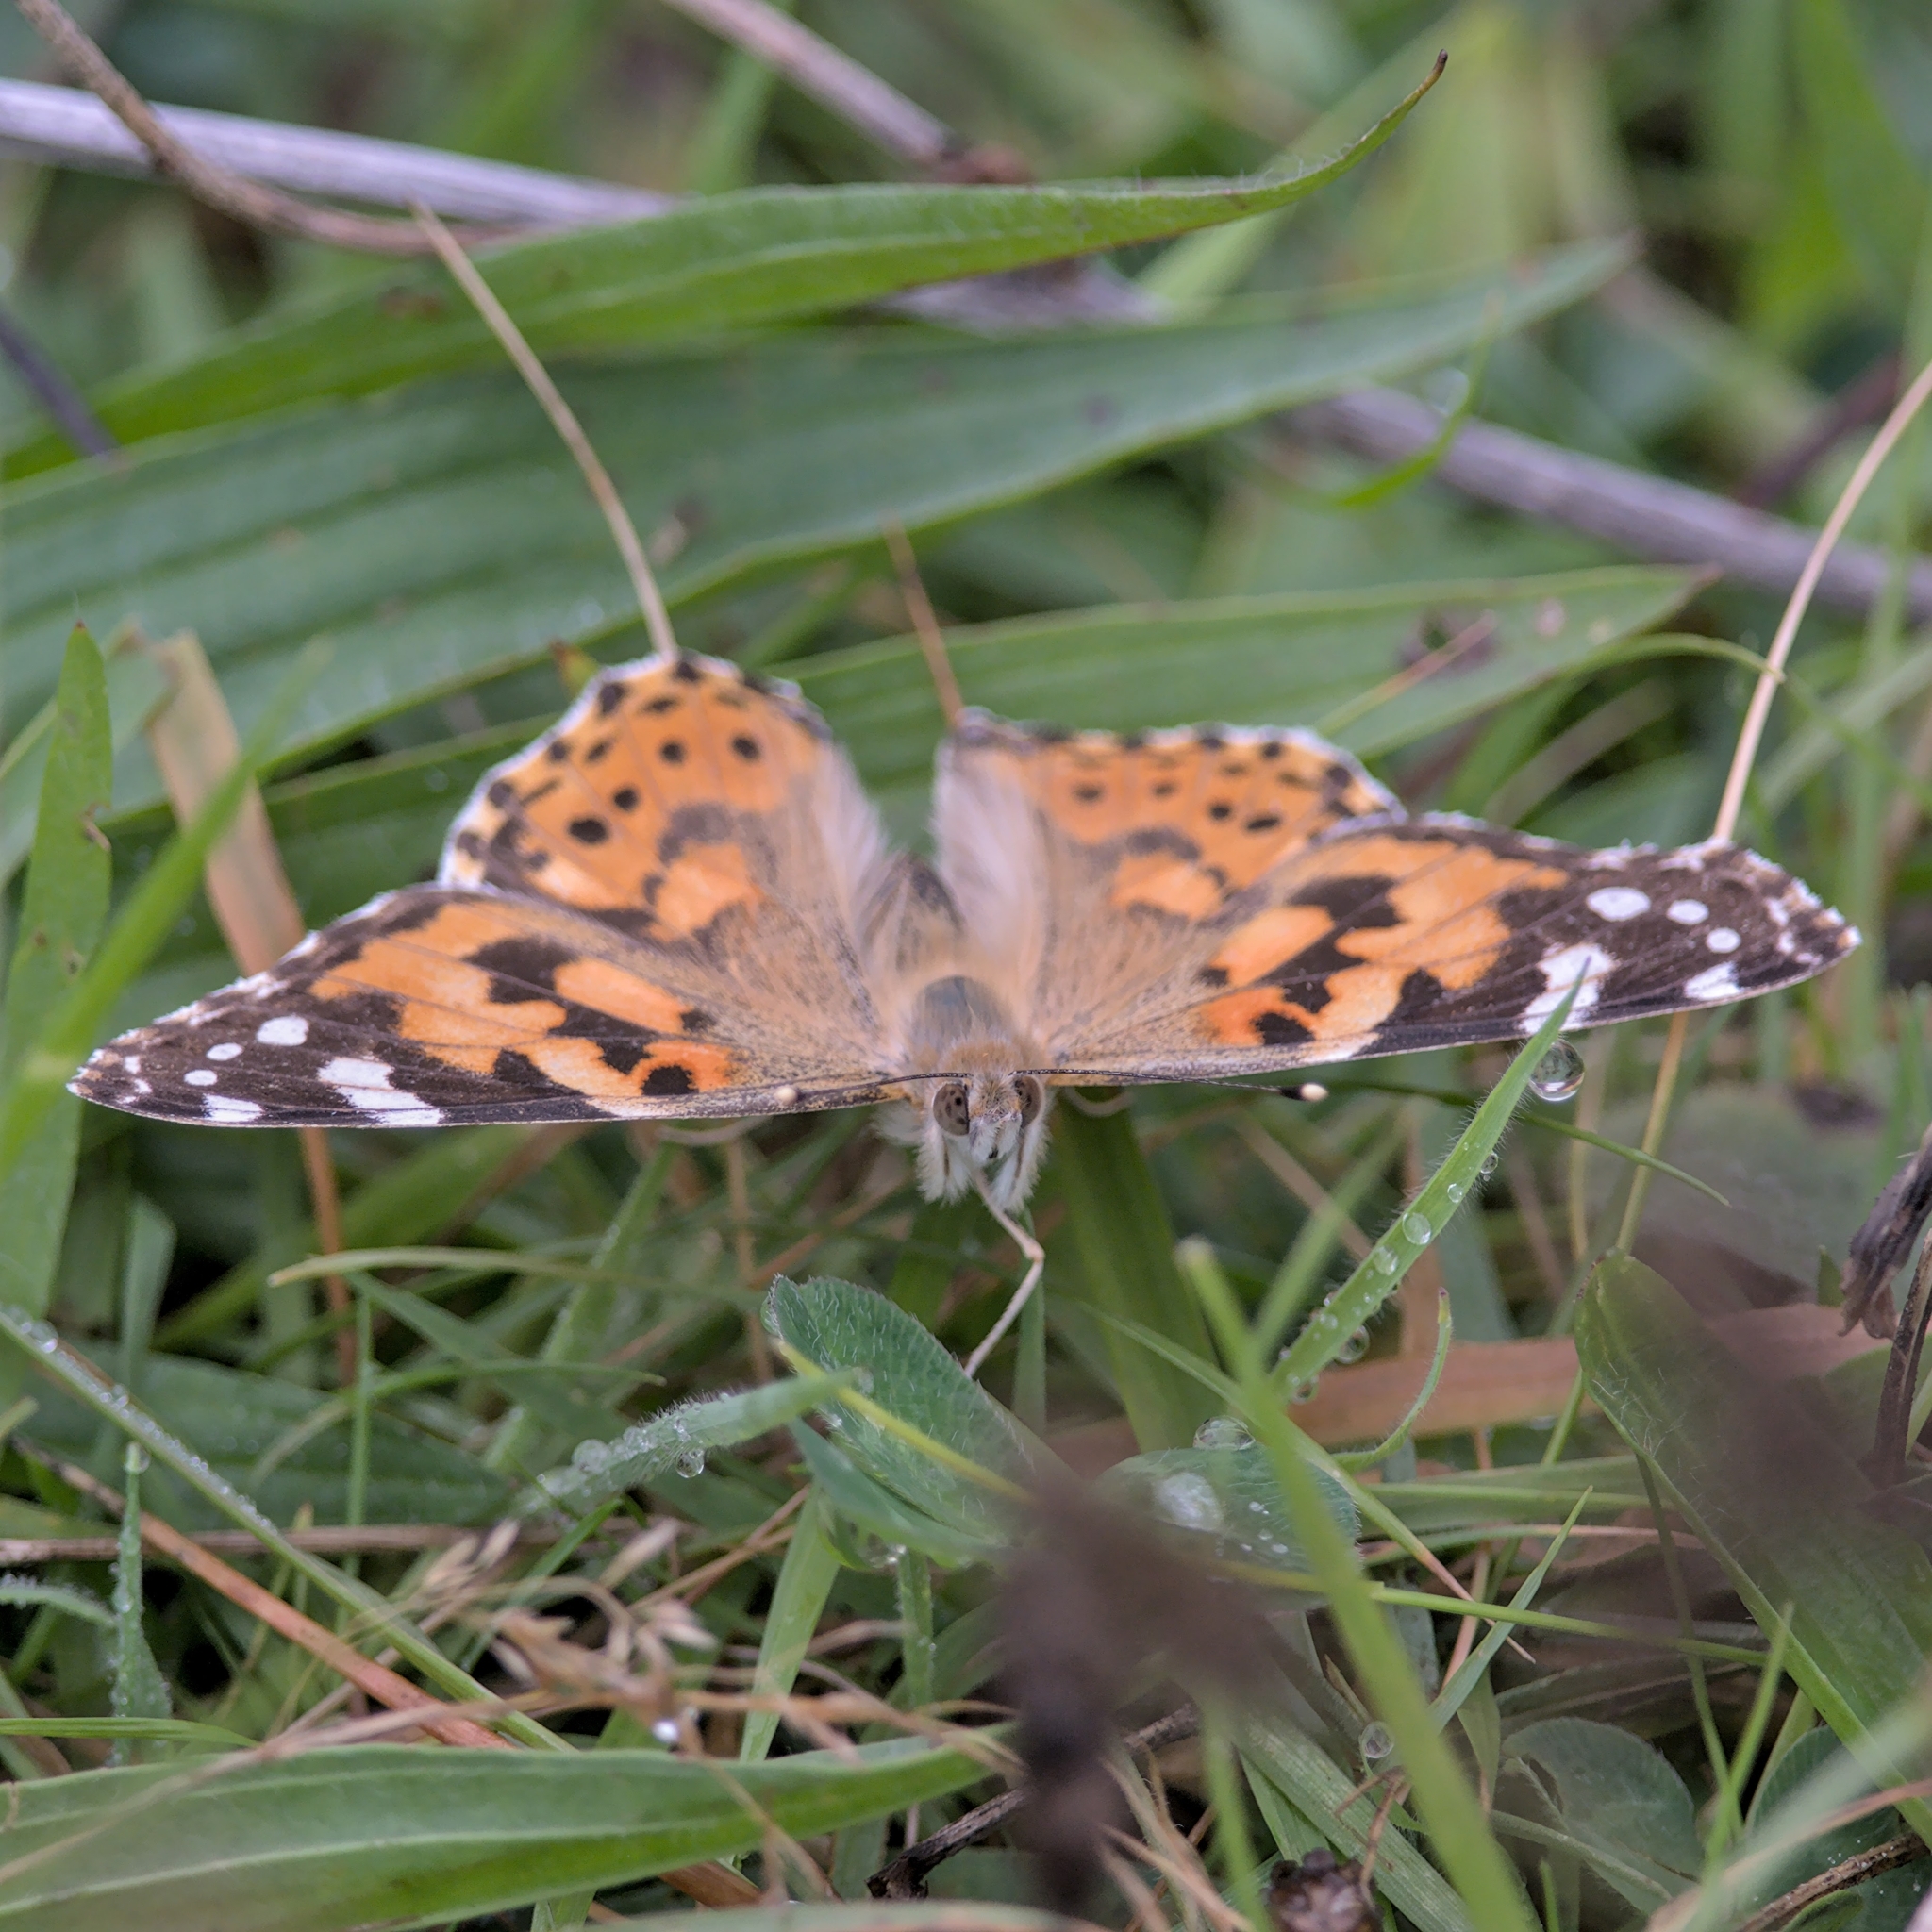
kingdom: Animalia
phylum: Arthropoda
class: Insecta
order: Lepidoptera
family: Nymphalidae
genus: Vanessa
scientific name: Vanessa cardui
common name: Painted lady
